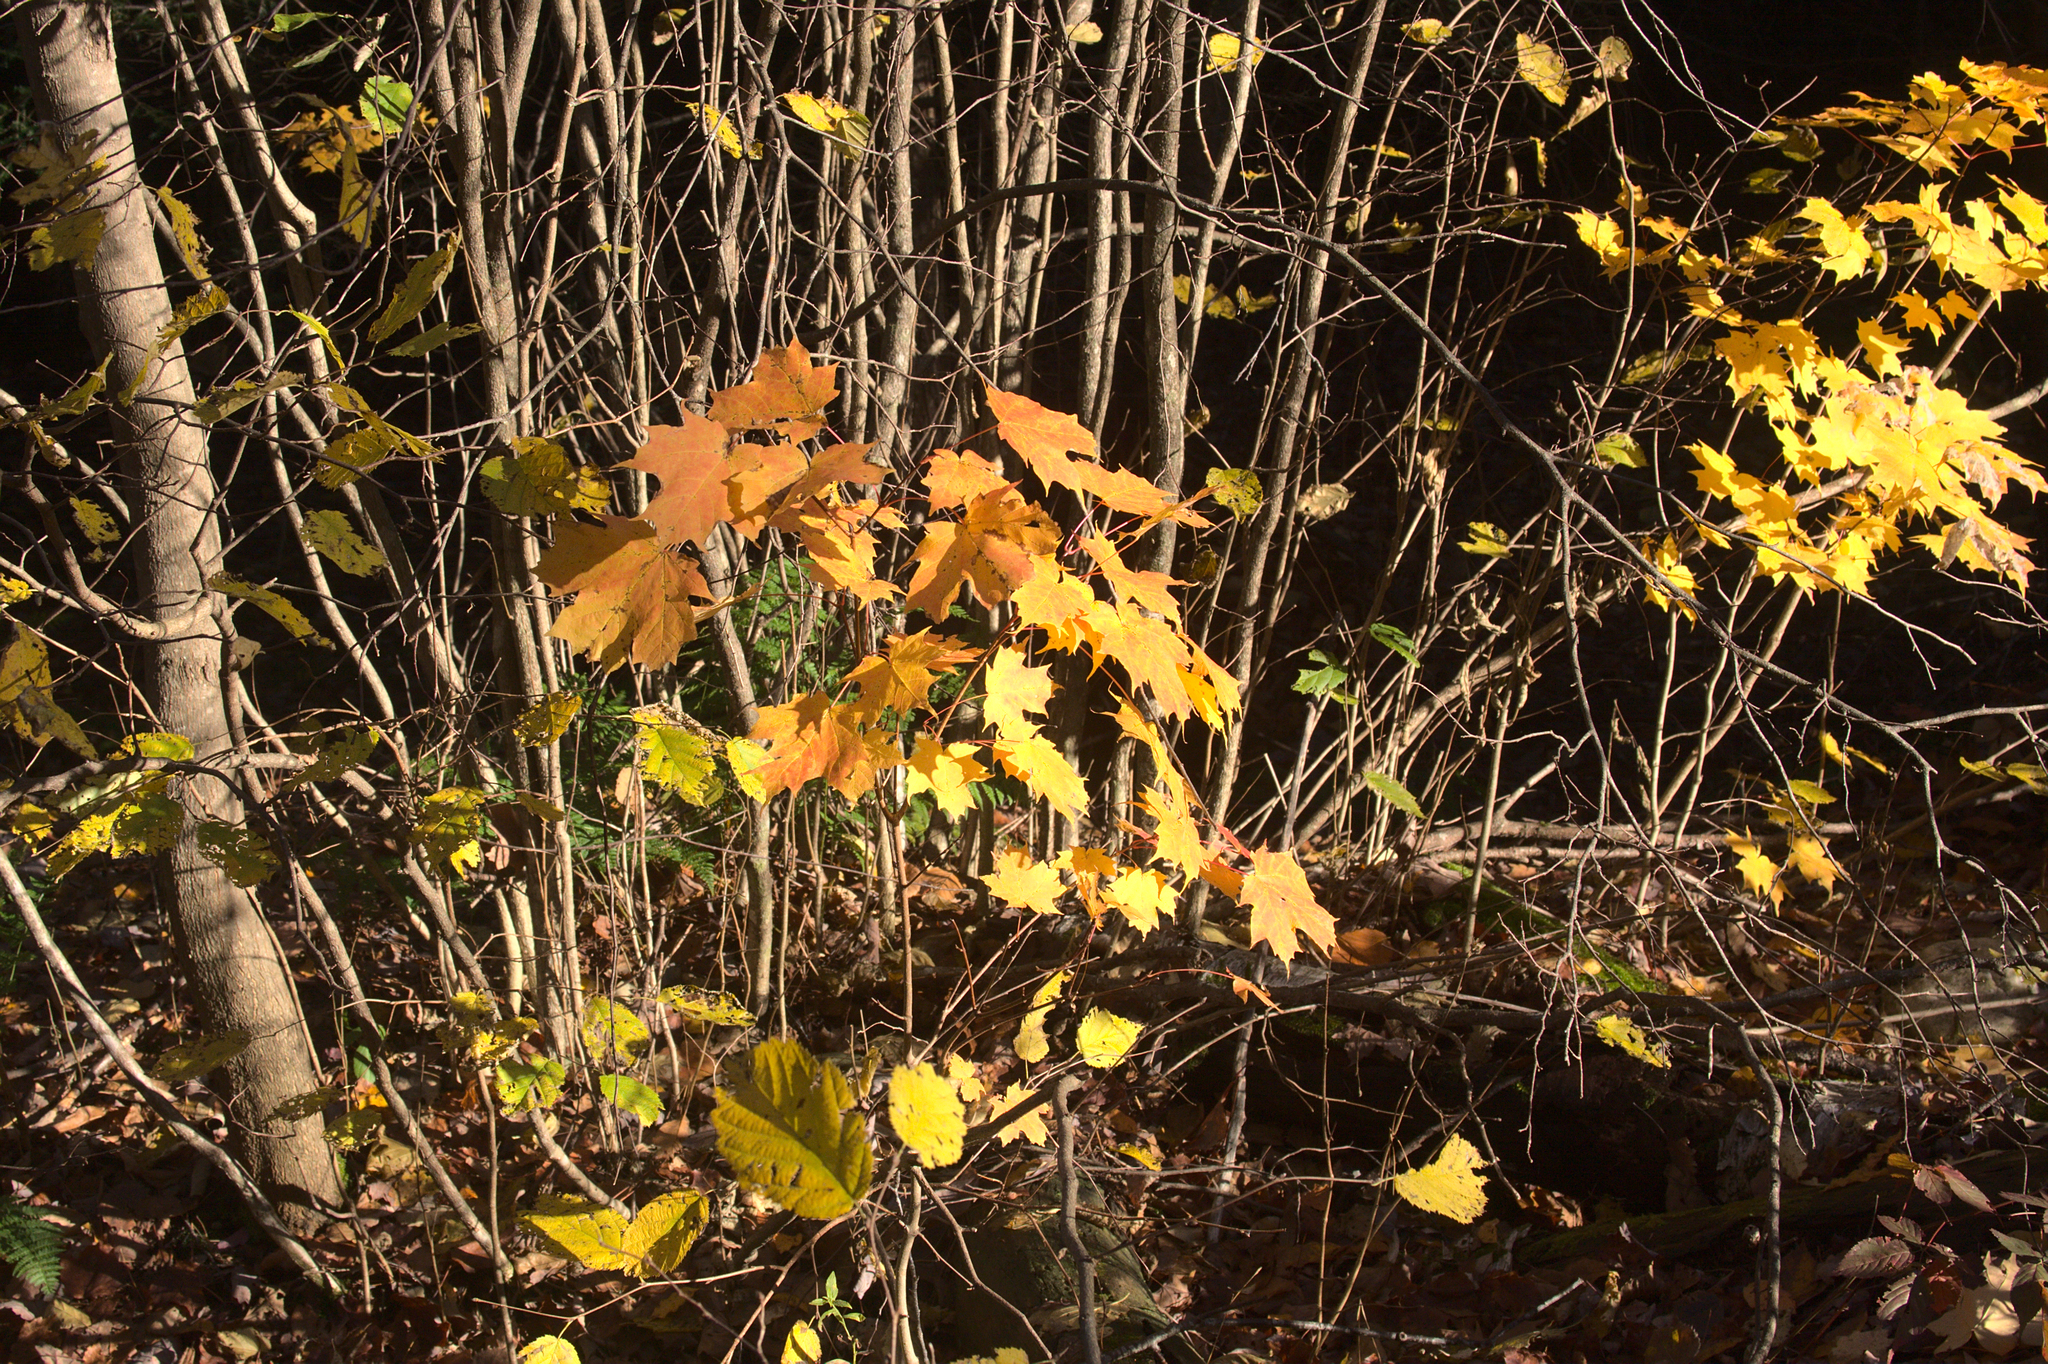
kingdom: Plantae
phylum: Tracheophyta
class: Magnoliopsida
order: Sapindales
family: Sapindaceae
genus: Acer
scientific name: Acer saccharum
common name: Sugar maple
